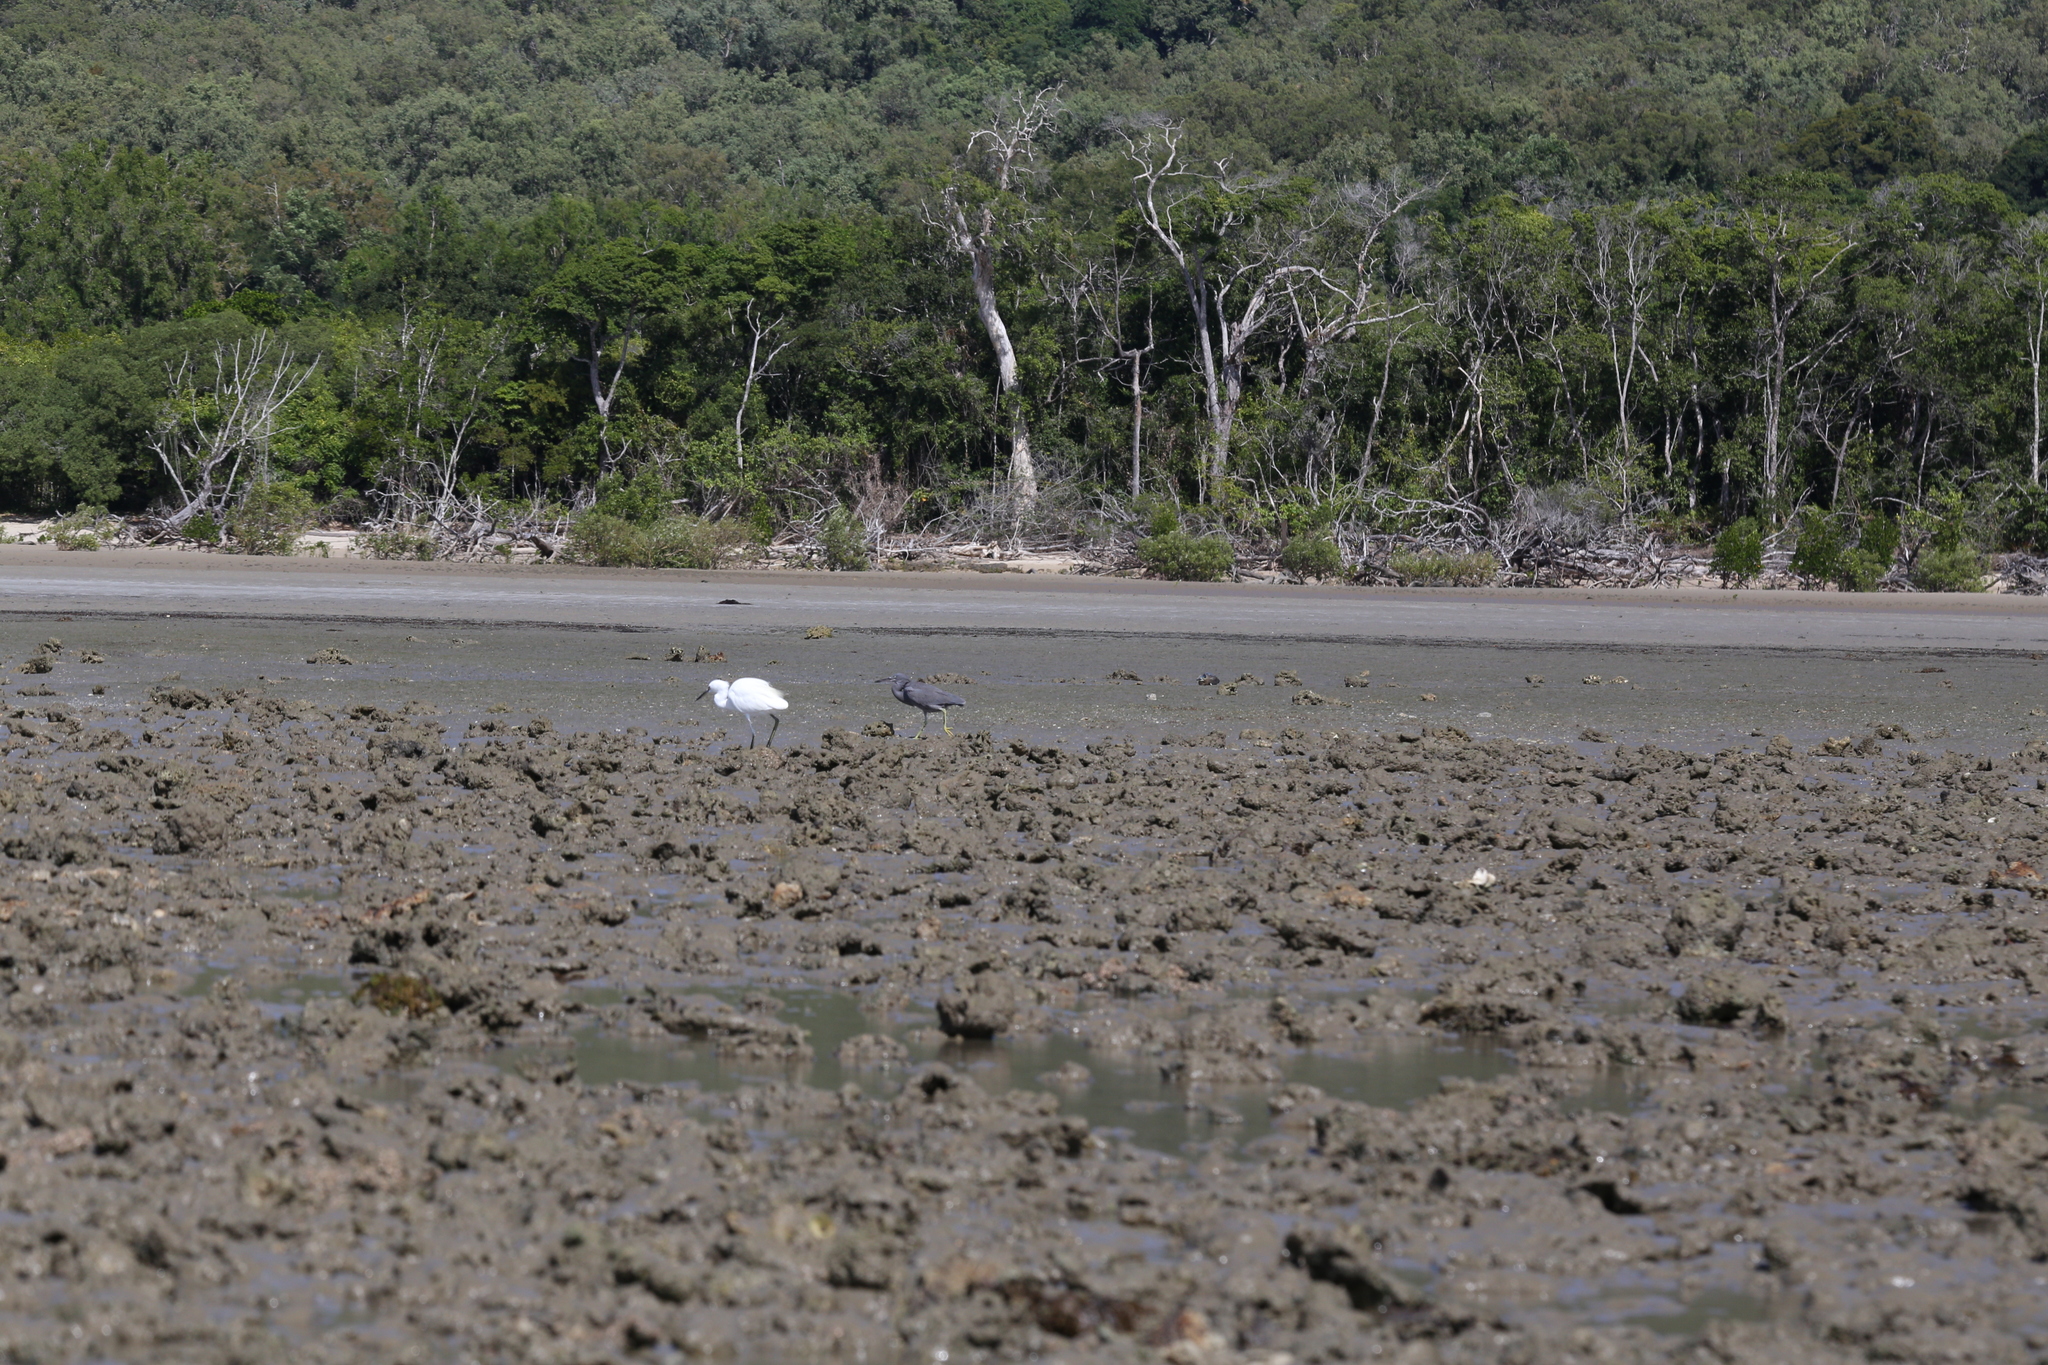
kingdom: Animalia
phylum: Chordata
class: Aves
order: Pelecaniformes
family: Ardeidae
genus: Egretta
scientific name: Egretta garzetta
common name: Little egret
